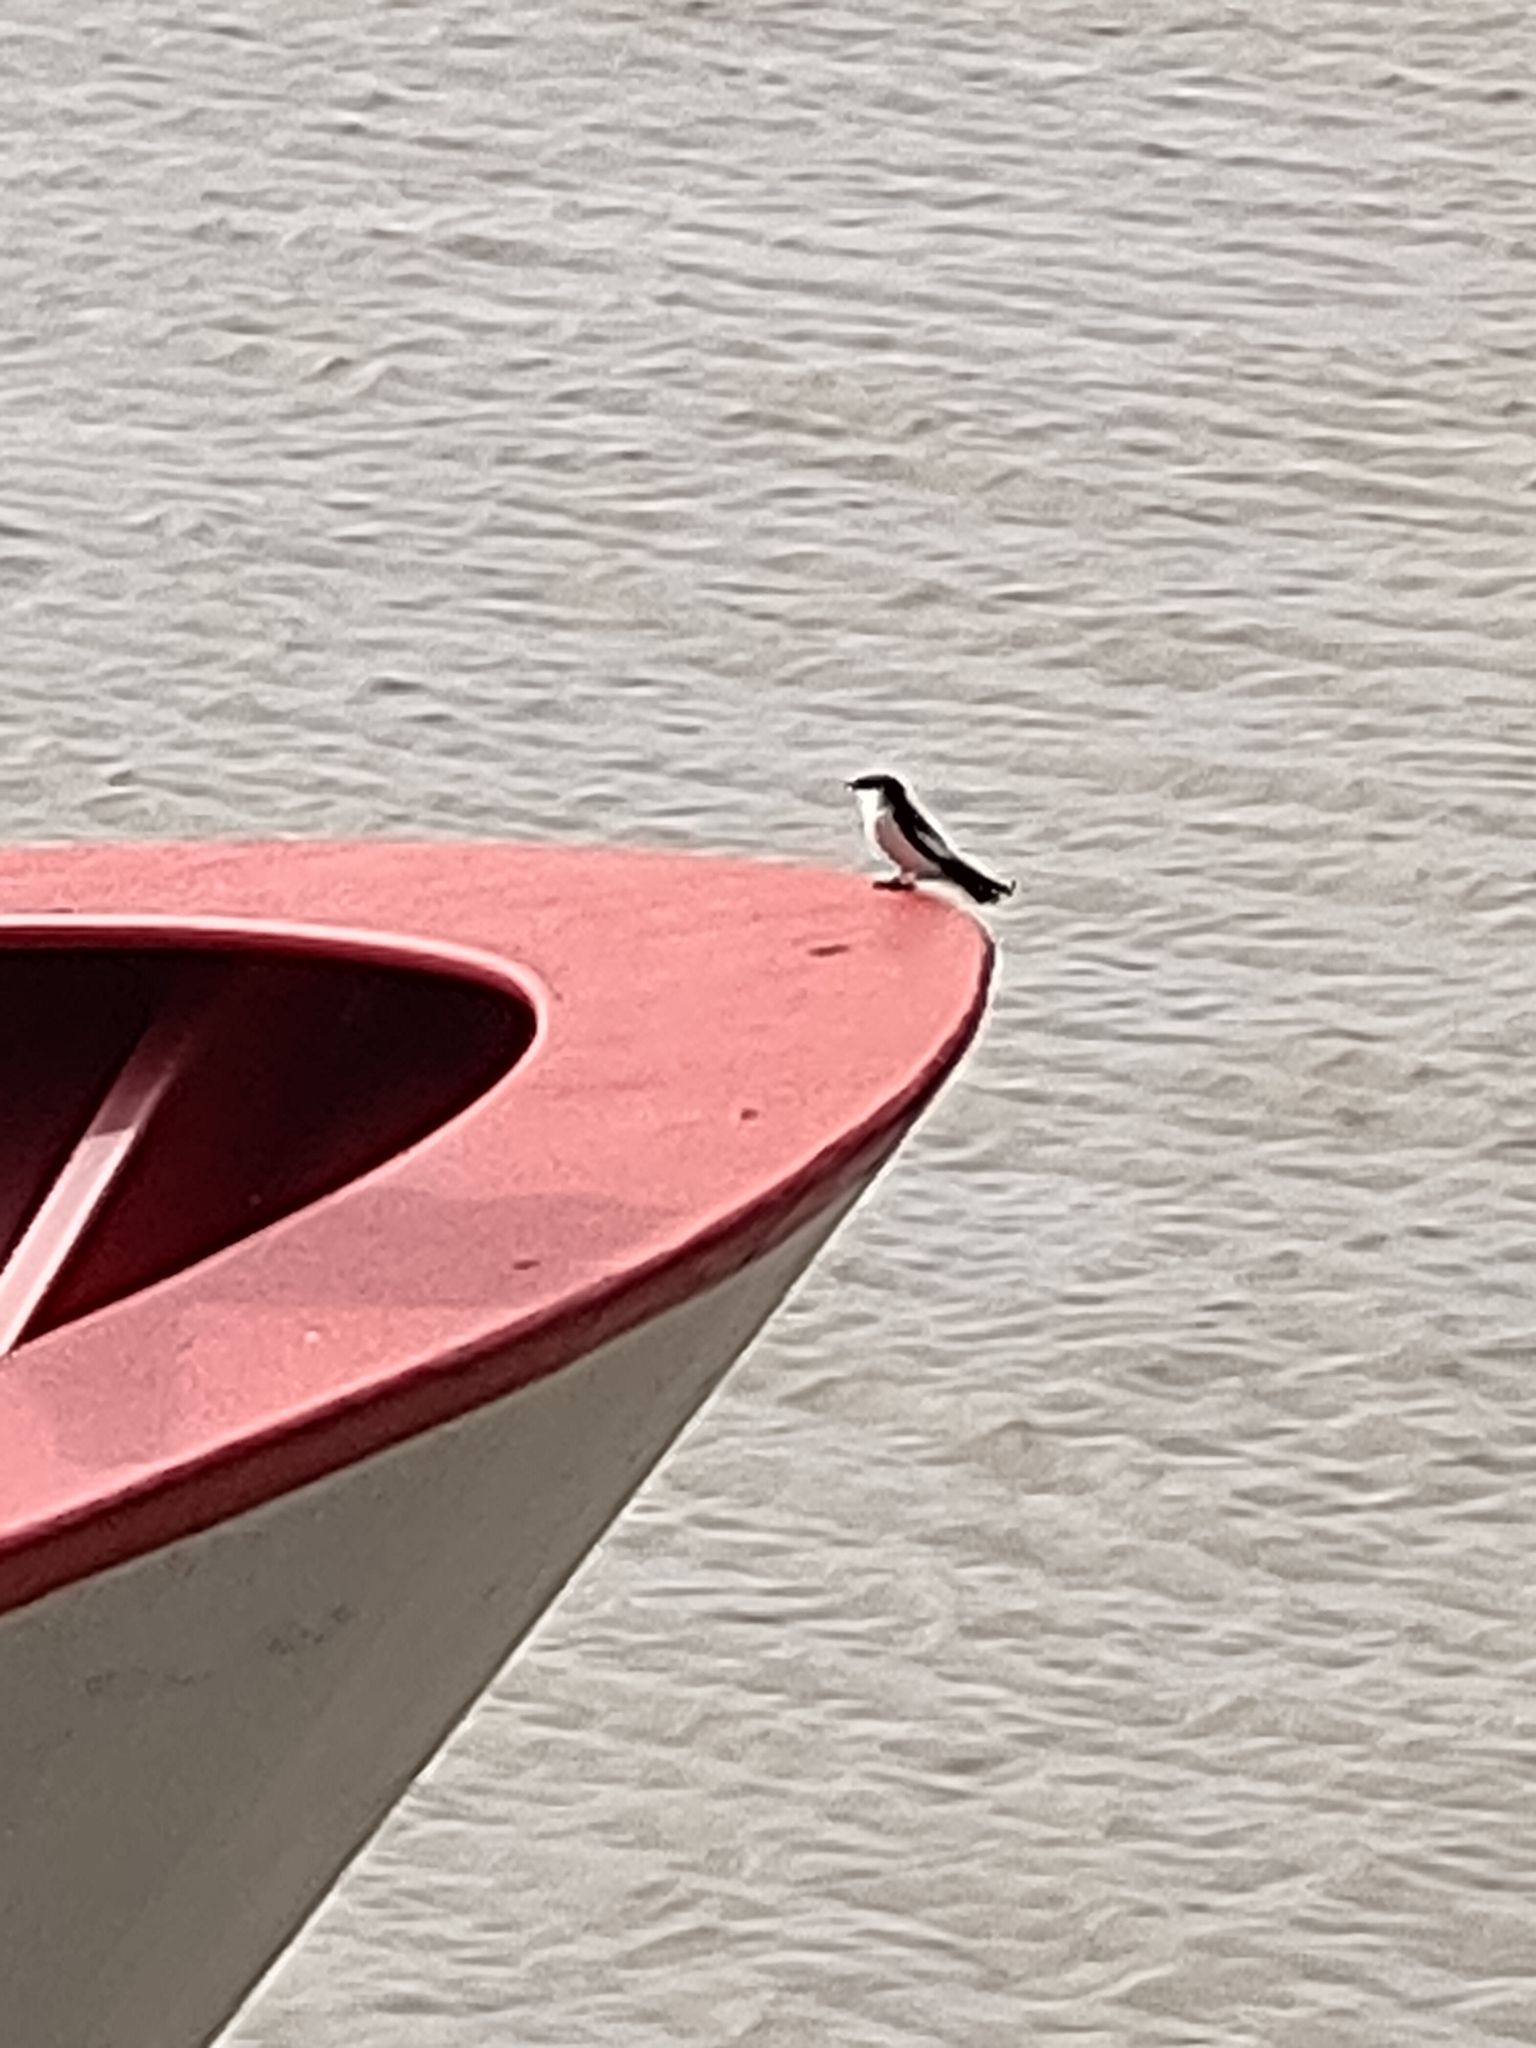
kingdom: Animalia
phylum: Chordata
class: Aves
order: Passeriformes
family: Hirundinidae
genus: Tachycineta
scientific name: Tachycineta albiventer
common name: White-winged swallow
